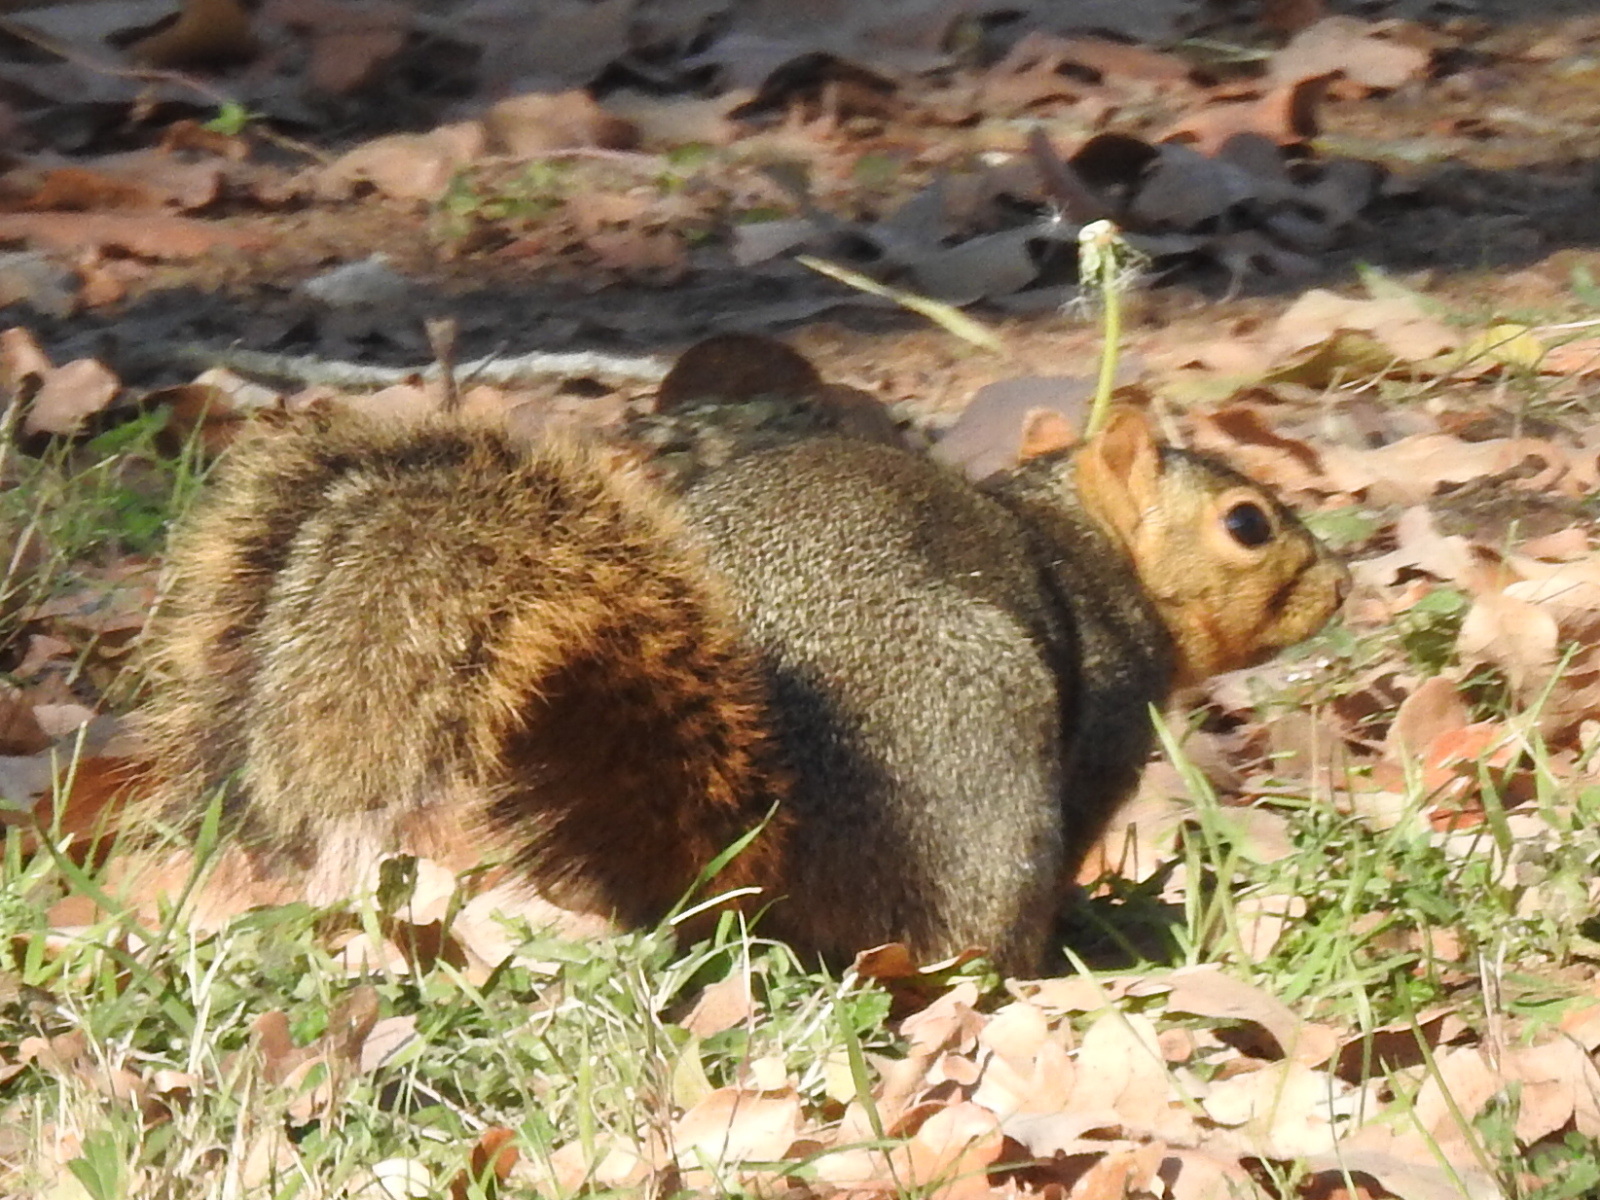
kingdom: Animalia
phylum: Chordata
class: Mammalia
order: Rodentia
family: Sciuridae
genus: Sciurus
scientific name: Sciurus niger
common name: Fox squirrel
